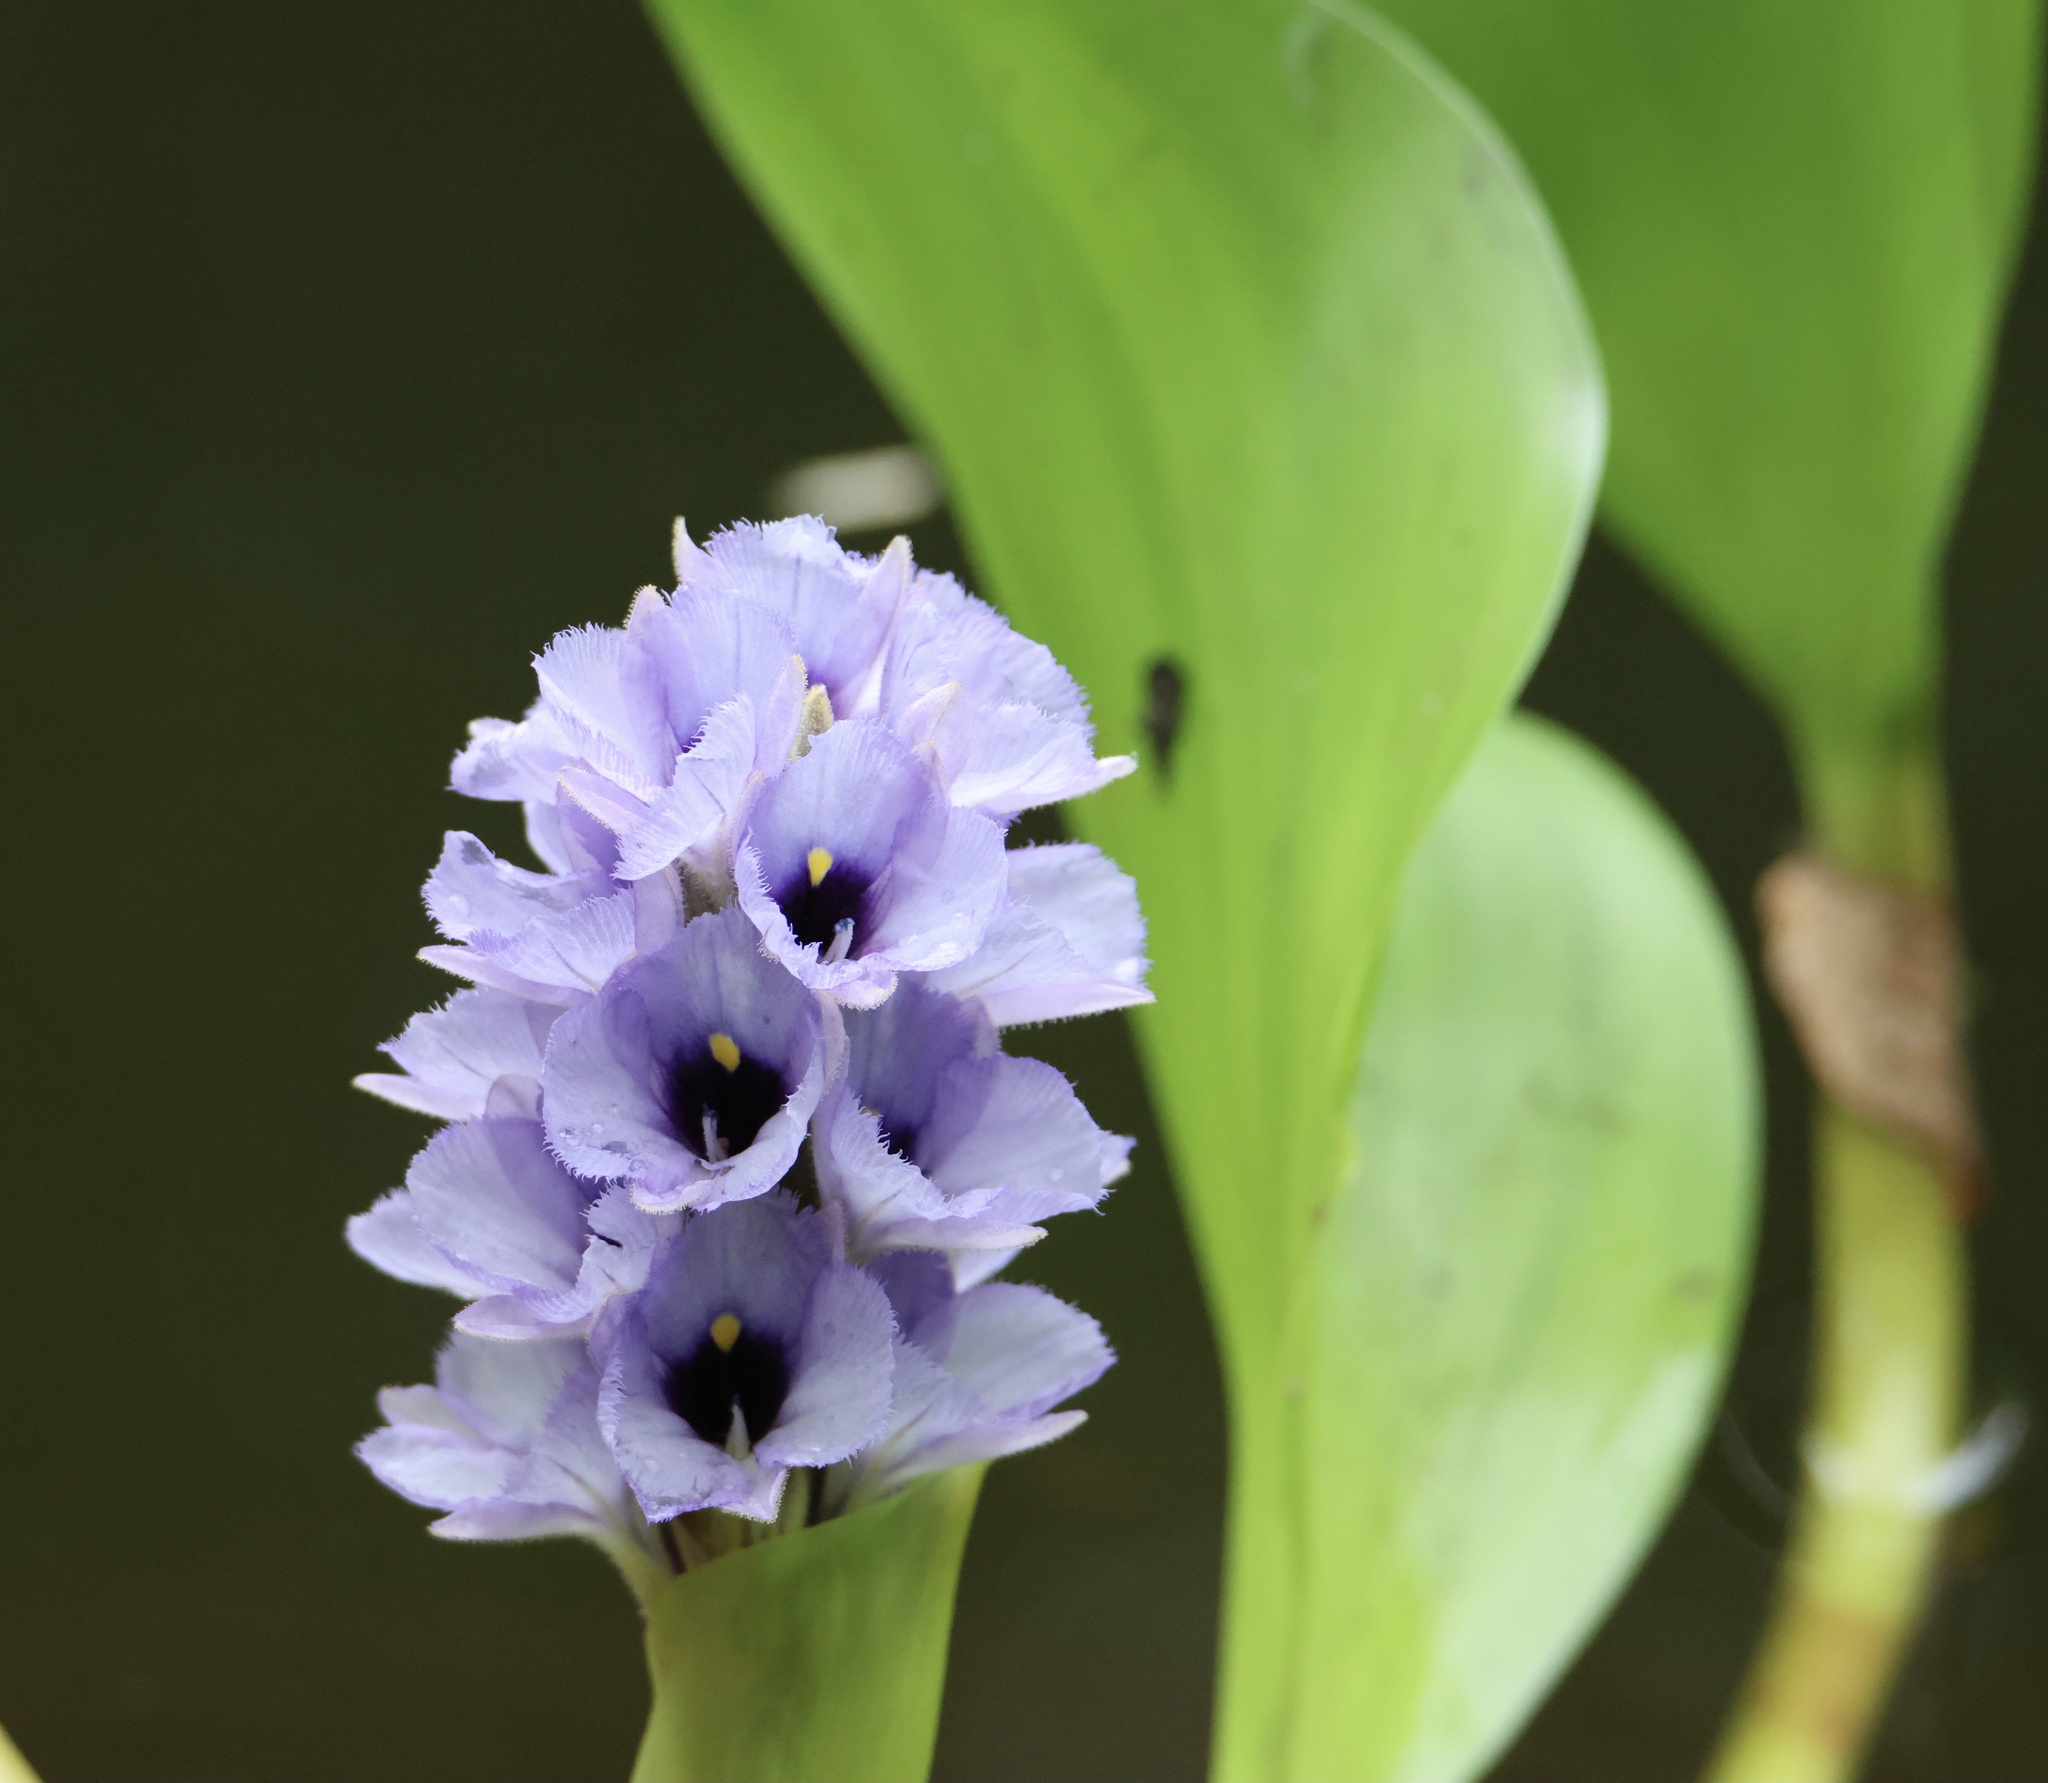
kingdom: Plantae
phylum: Tracheophyta
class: Liliopsida
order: Commelinales
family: Pontederiaceae
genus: Pontederia
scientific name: Pontederia azurea
